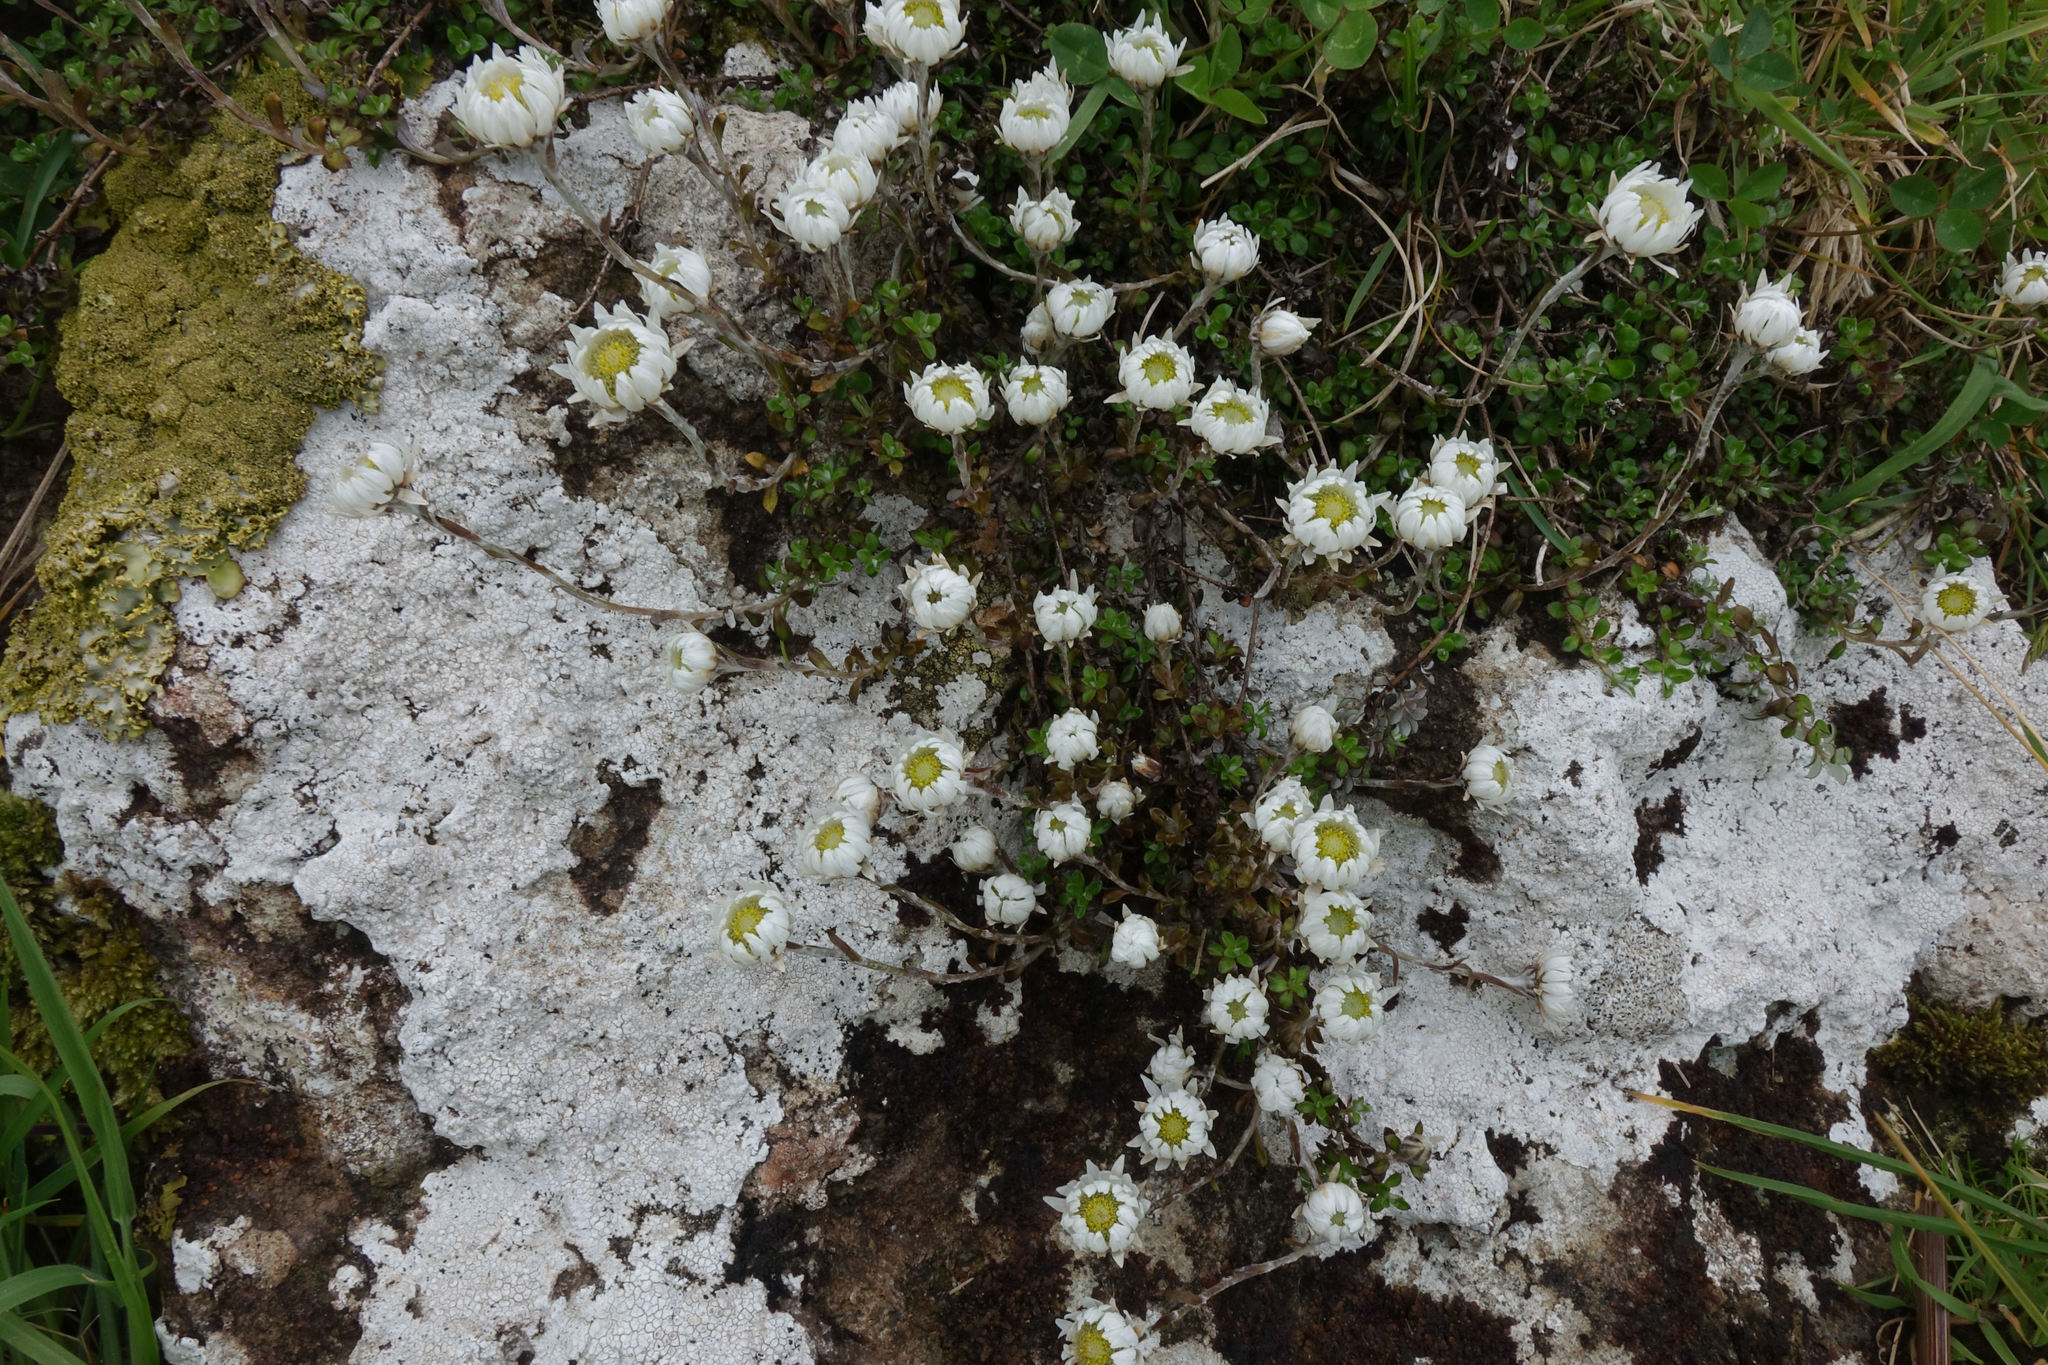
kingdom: Plantae
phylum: Tracheophyta
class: Magnoliopsida
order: Asterales
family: Asteraceae
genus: Anaphalioides
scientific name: Anaphalioides bellidioides
